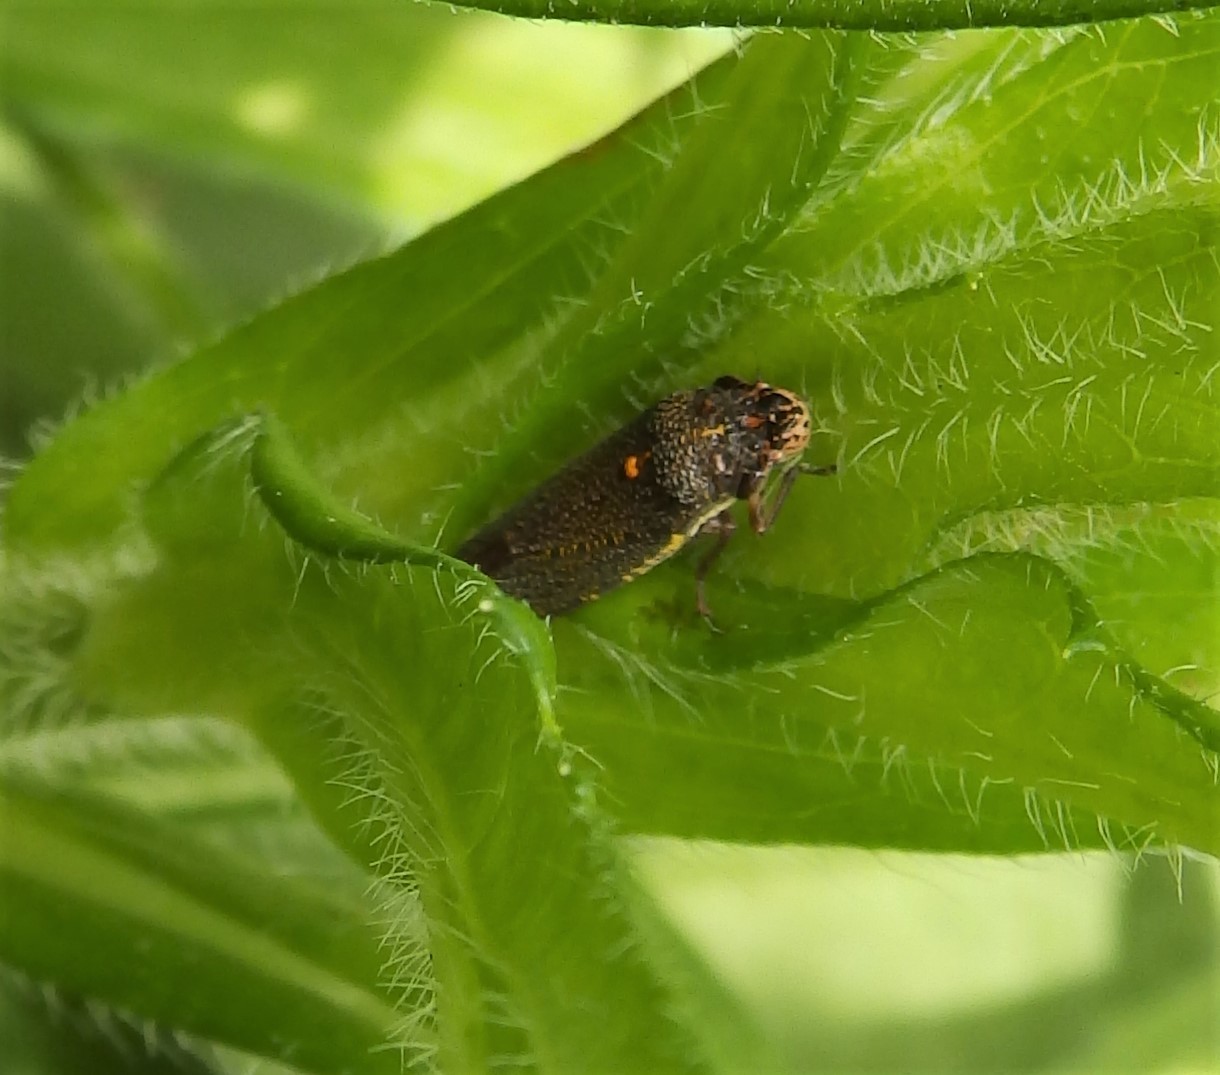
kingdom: Animalia
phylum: Arthropoda
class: Insecta
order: Hemiptera
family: Cicadellidae
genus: Paraulacizes
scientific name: Paraulacizes irrorata
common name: Speckled sharpshooter
